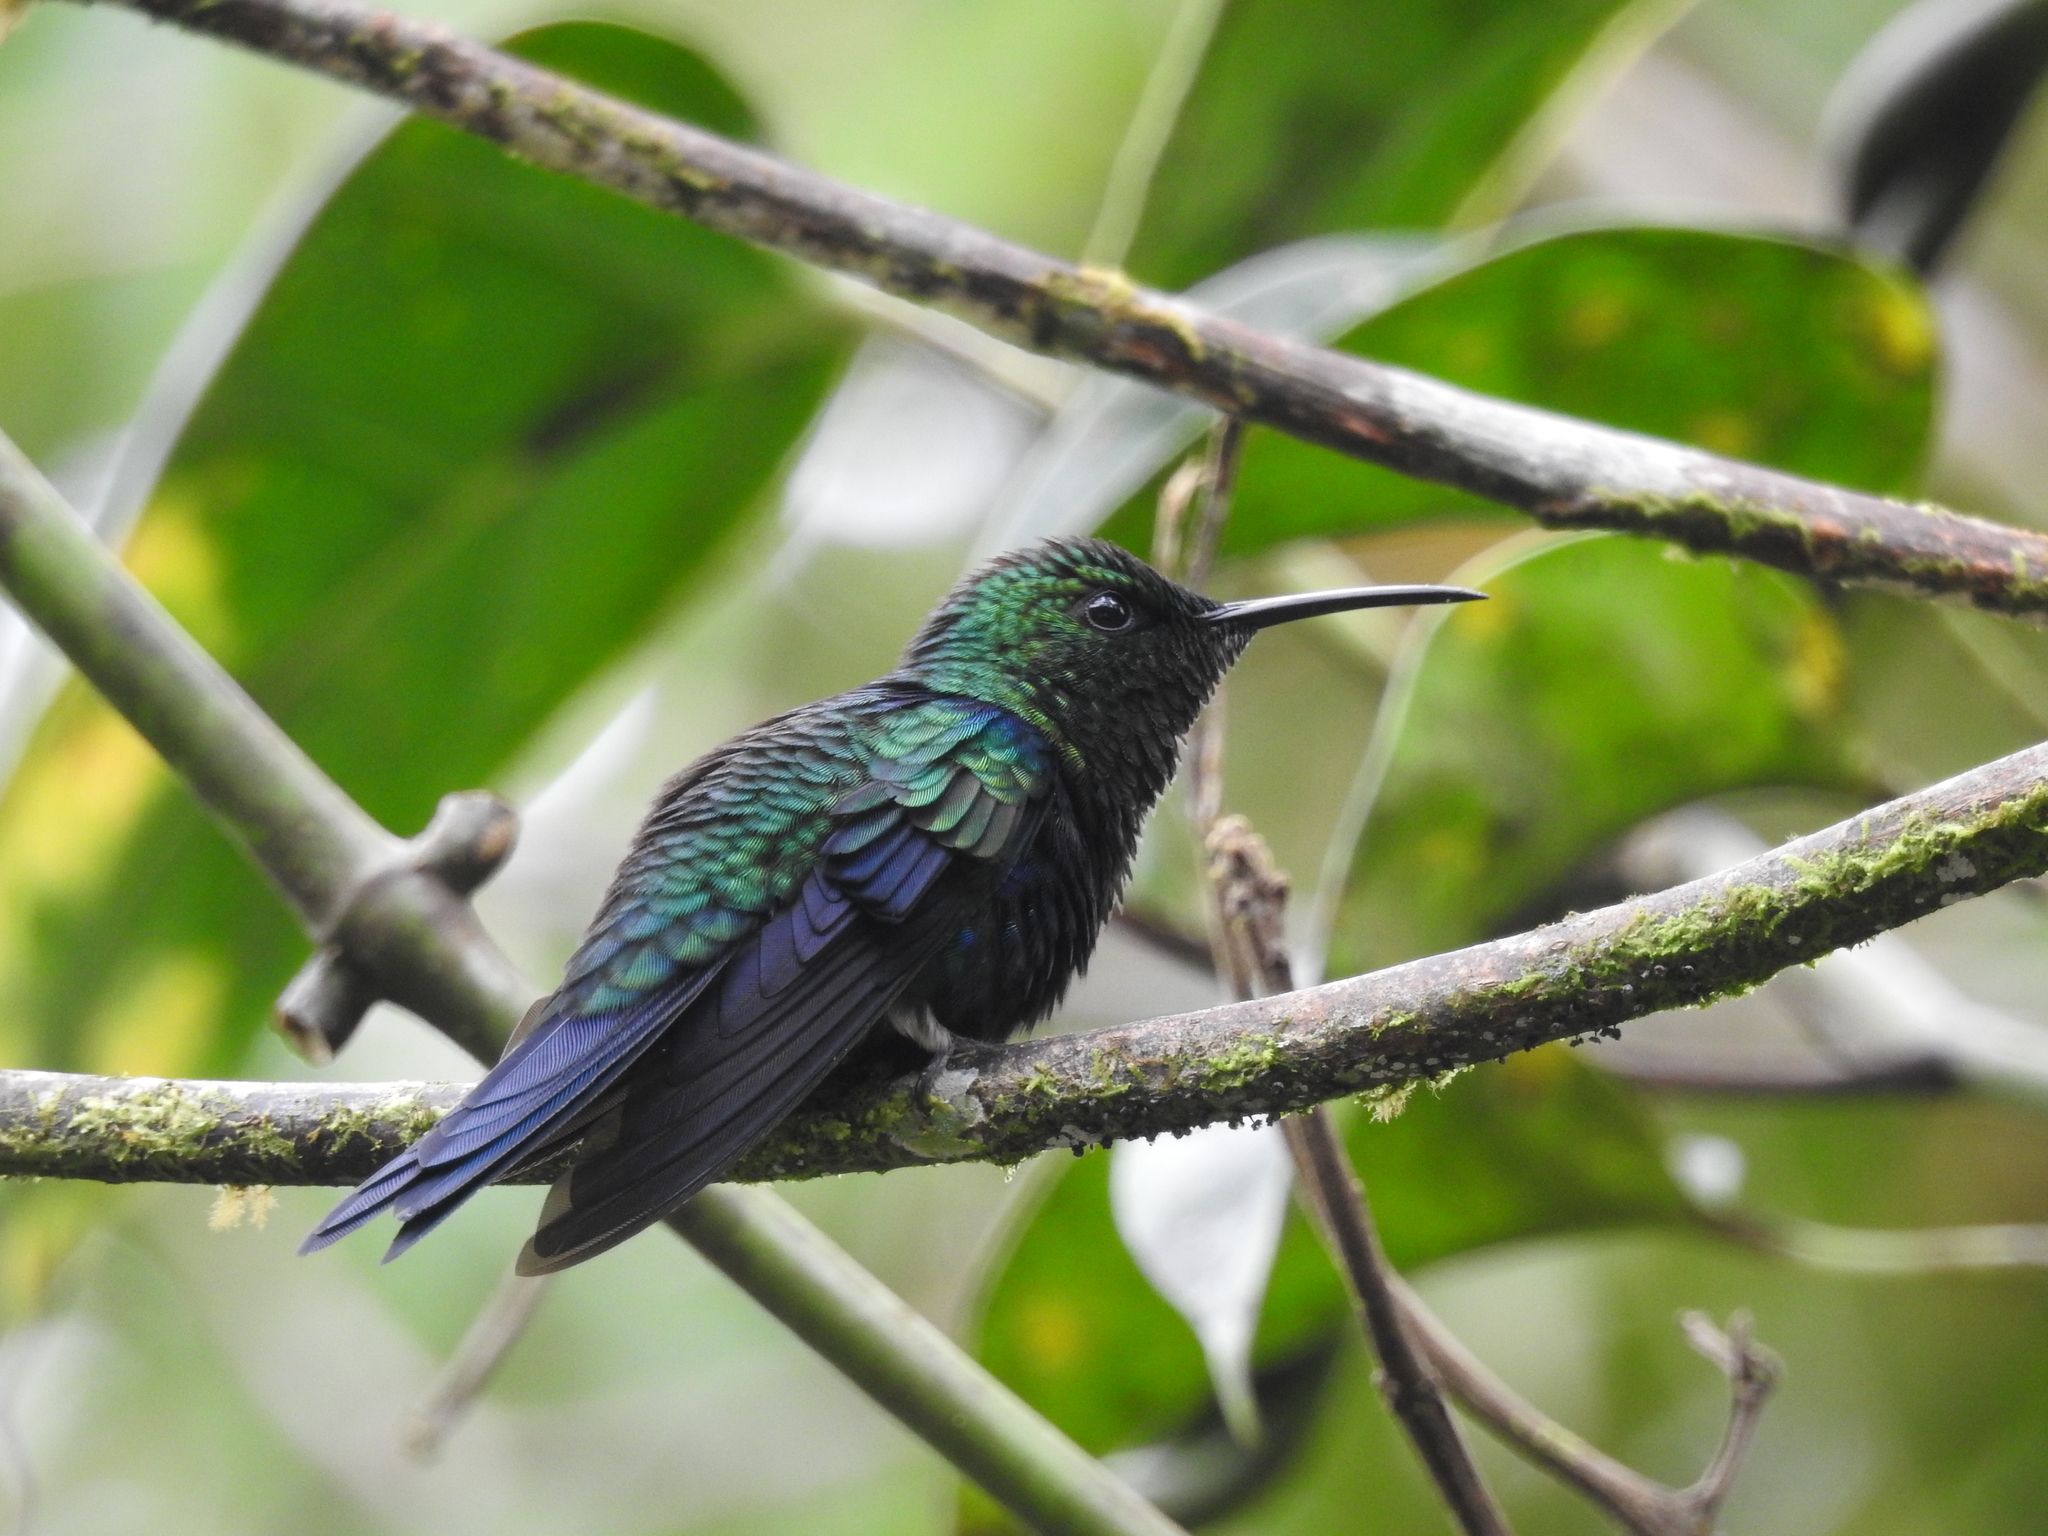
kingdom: Animalia
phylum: Chordata
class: Aves
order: Apodiformes
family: Trochilidae
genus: Thalurania
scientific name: Thalurania furcata
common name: Fork-tailed woodnymph
